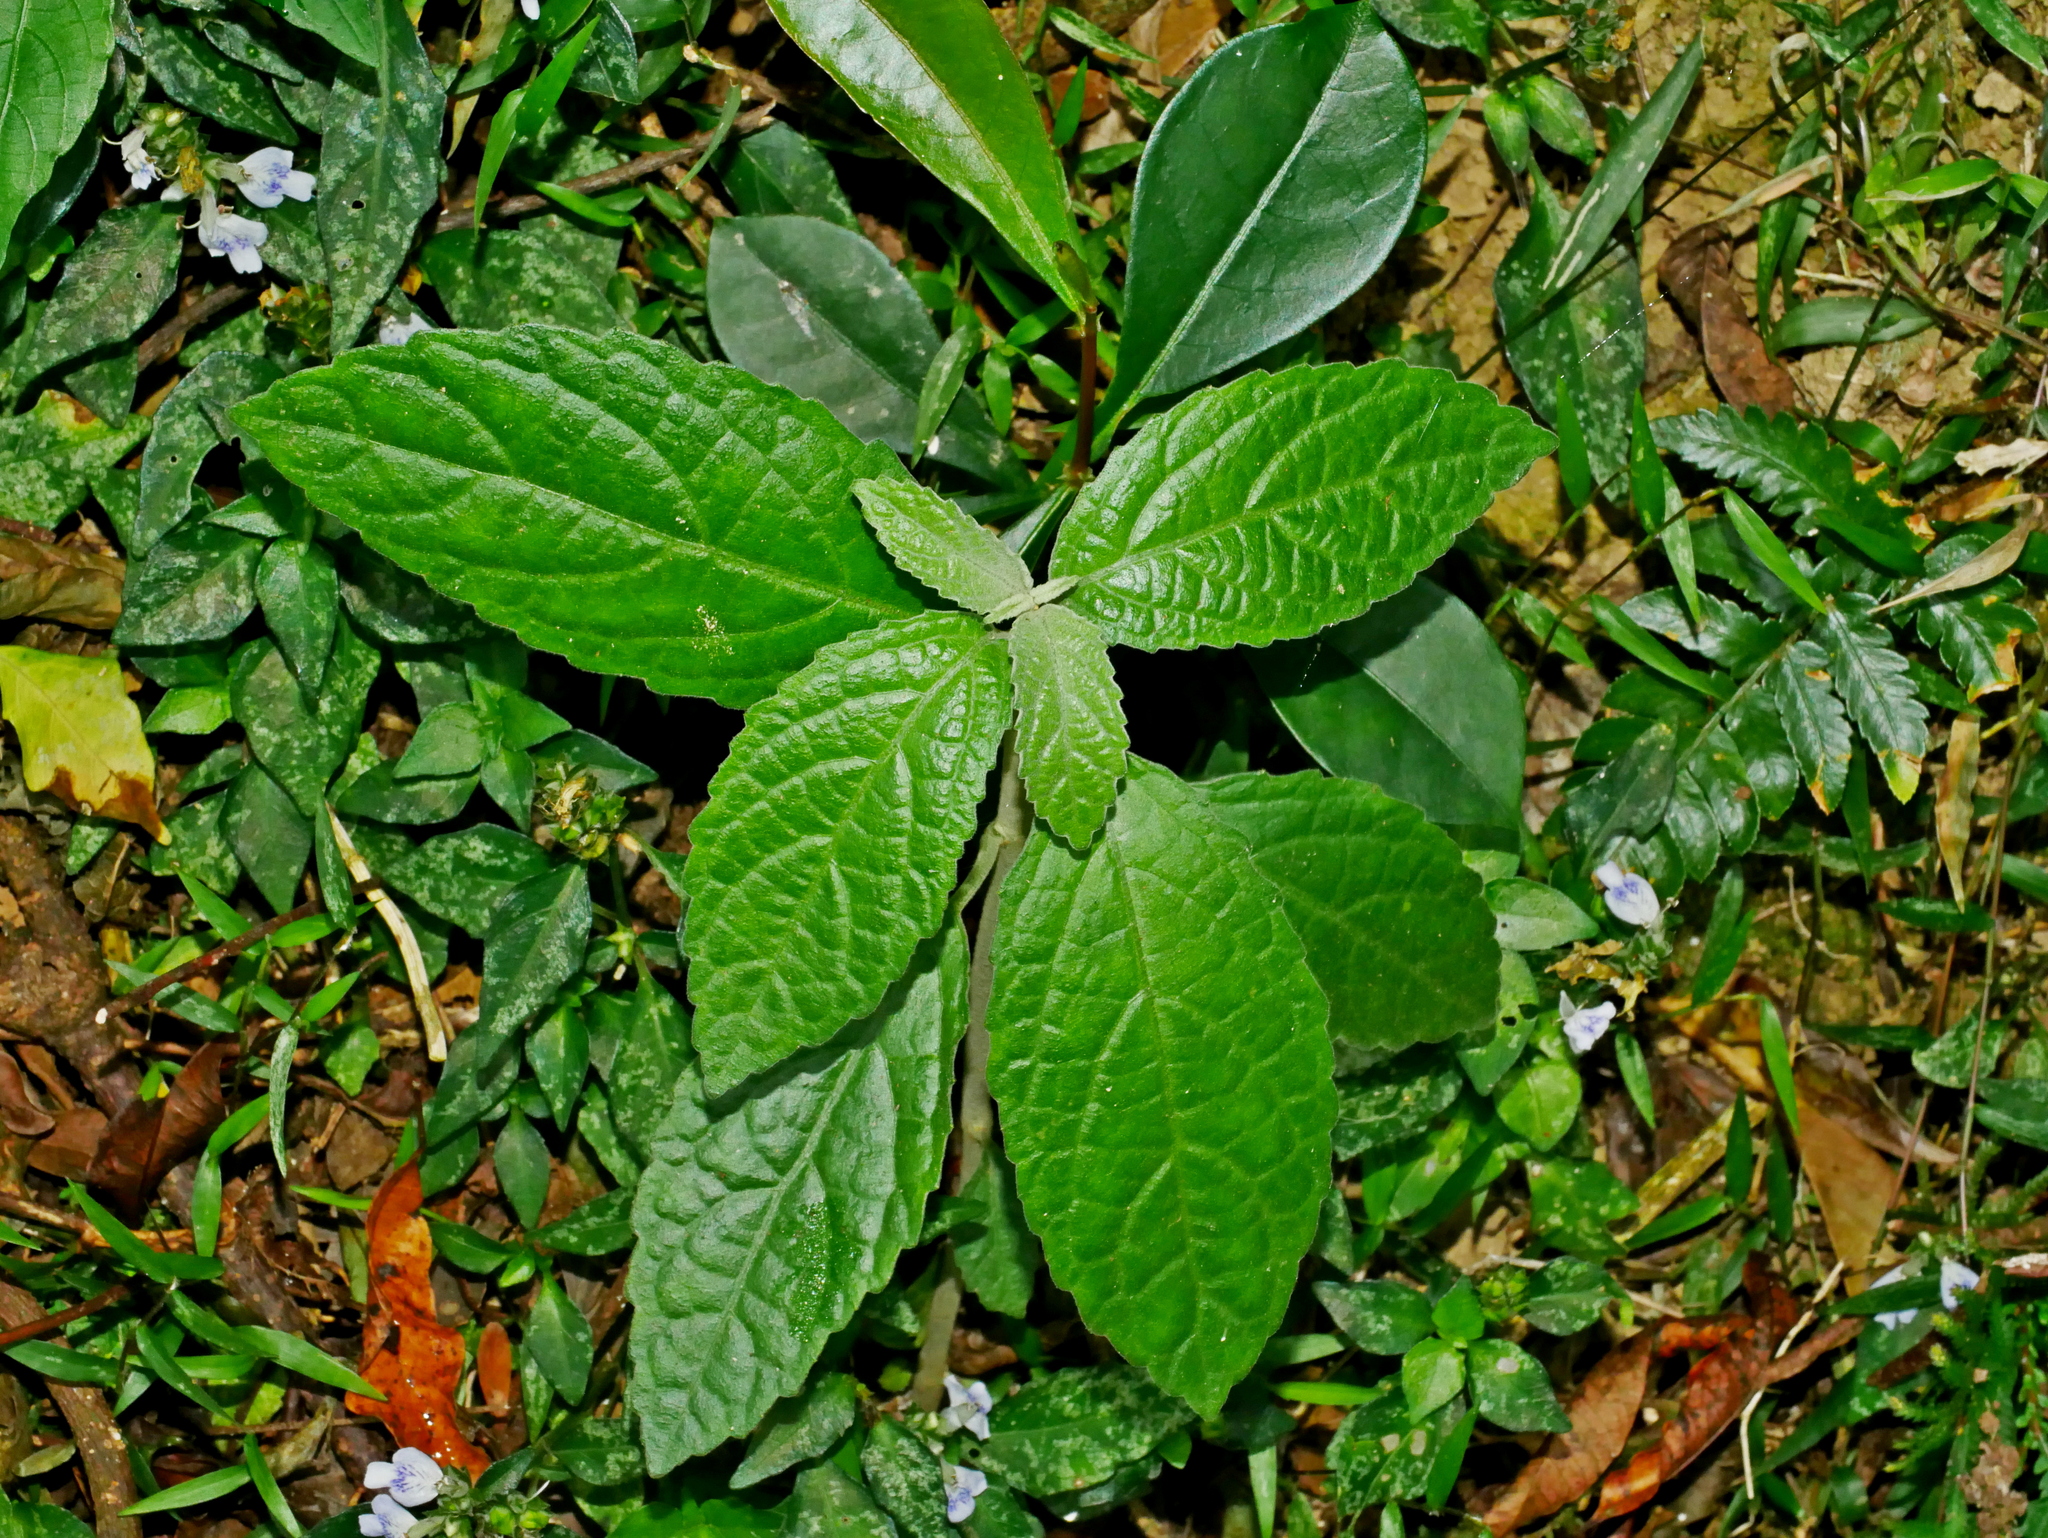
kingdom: Plantae
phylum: Tracheophyta
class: Magnoliopsida
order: Lamiales
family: Lamiaceae
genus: Gomphostemma
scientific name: Gomphostemma chinense
